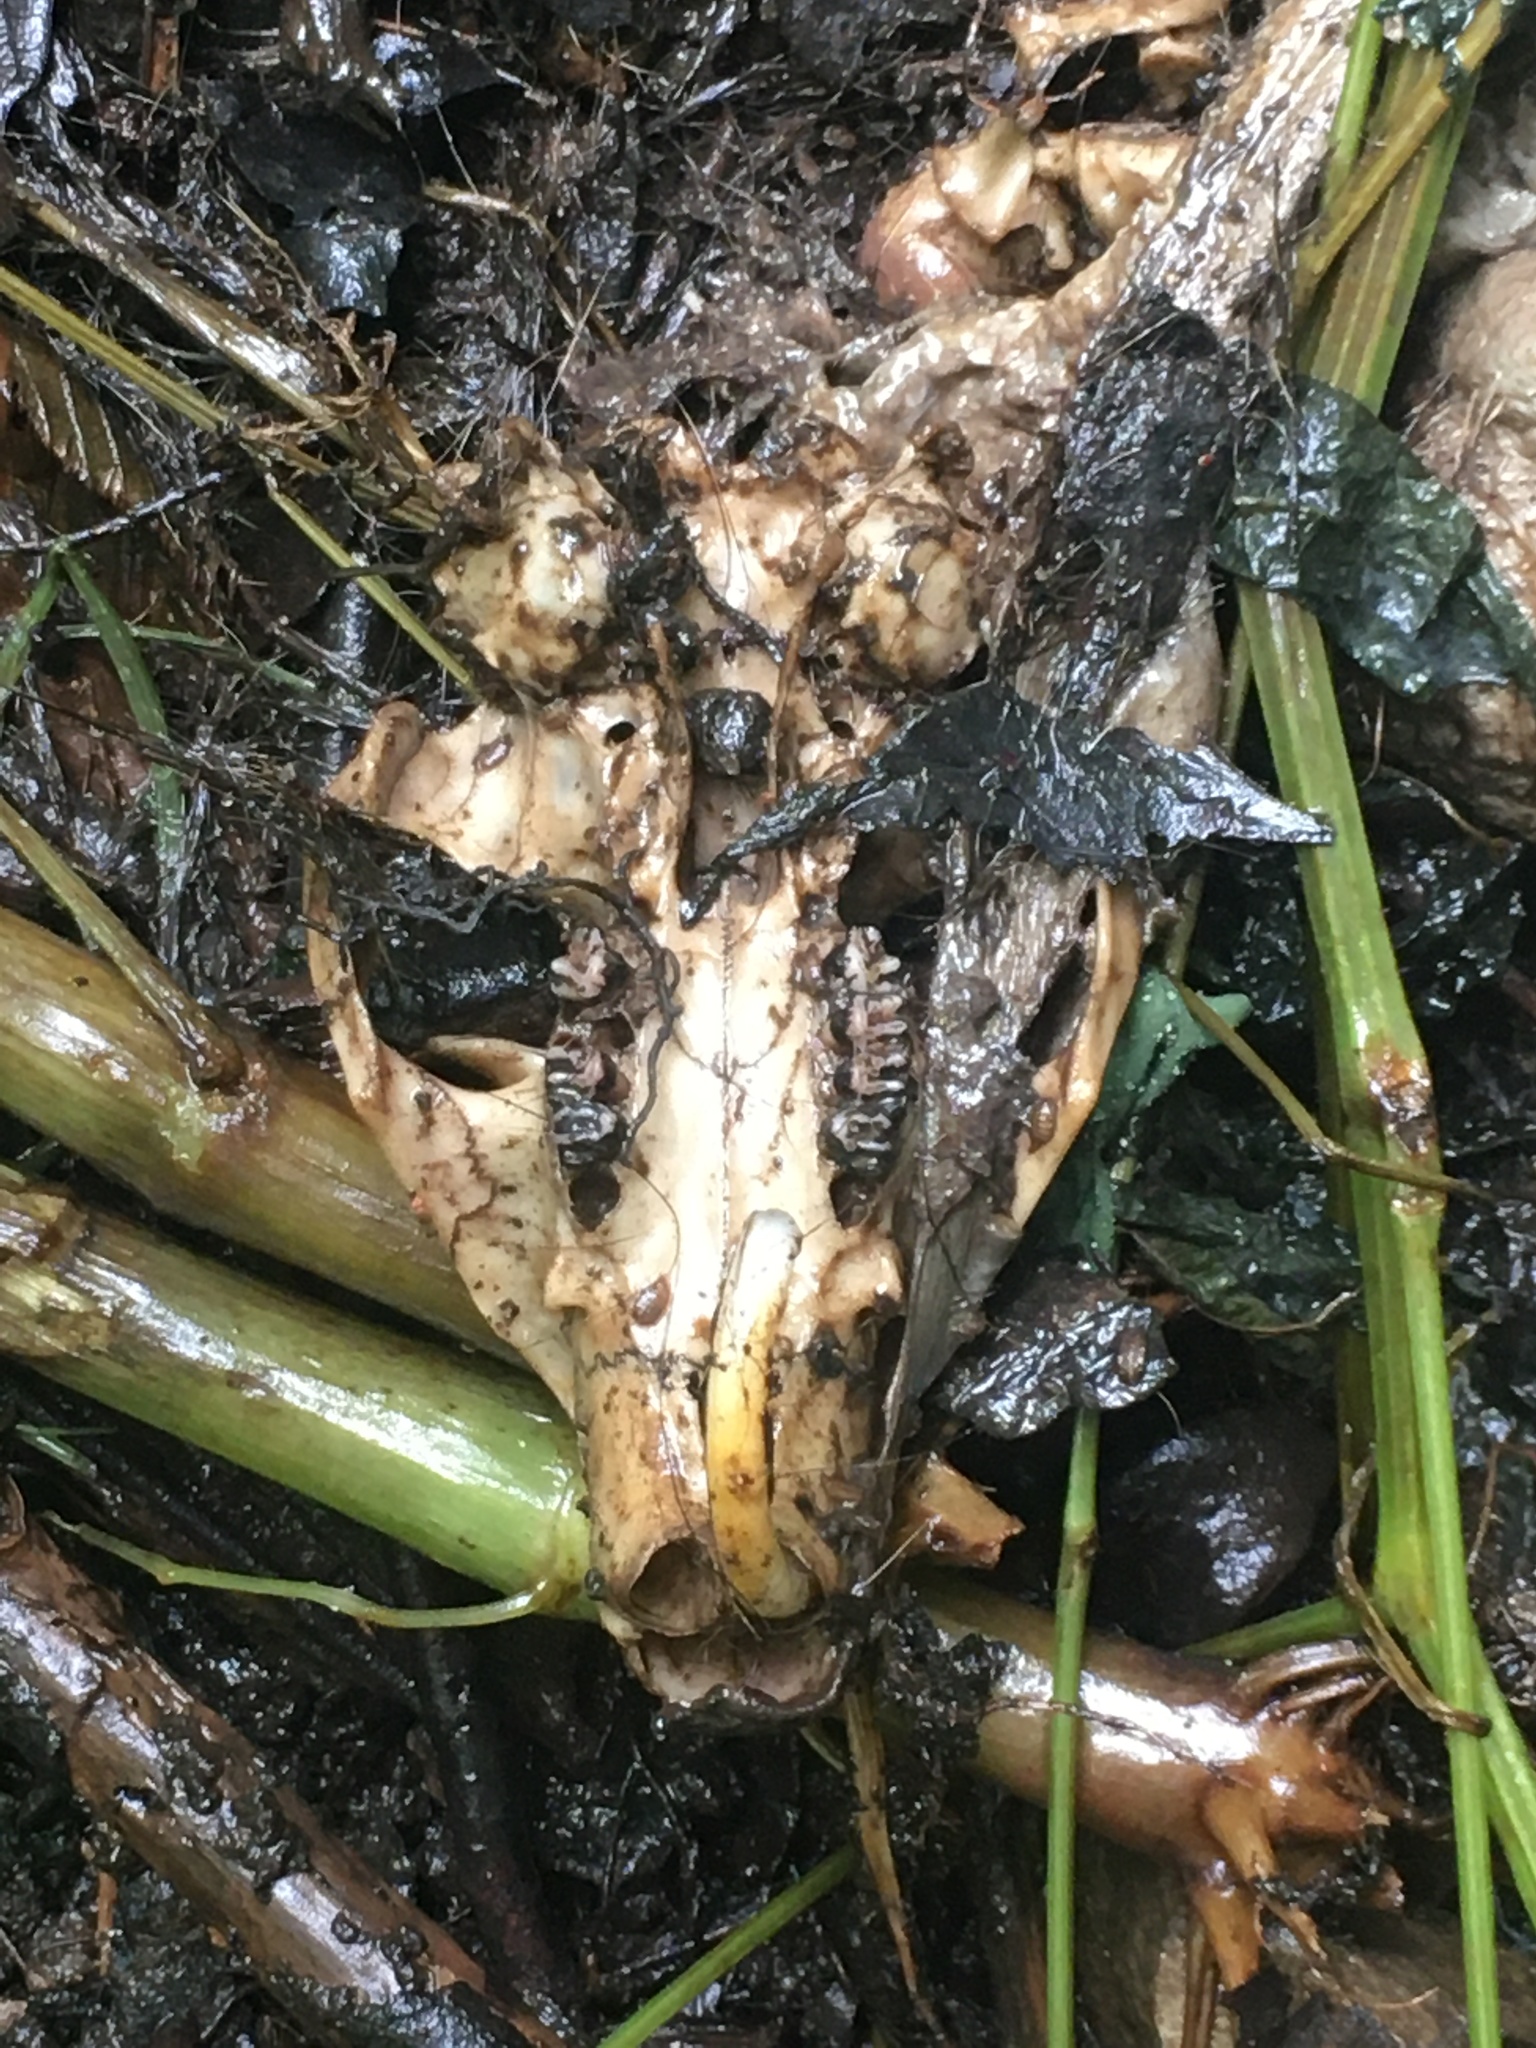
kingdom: Animalia
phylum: Chordata
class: Mammalia
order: Rodentia
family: Sciuridae
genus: Marmota
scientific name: Marmota monax
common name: Groundhog
